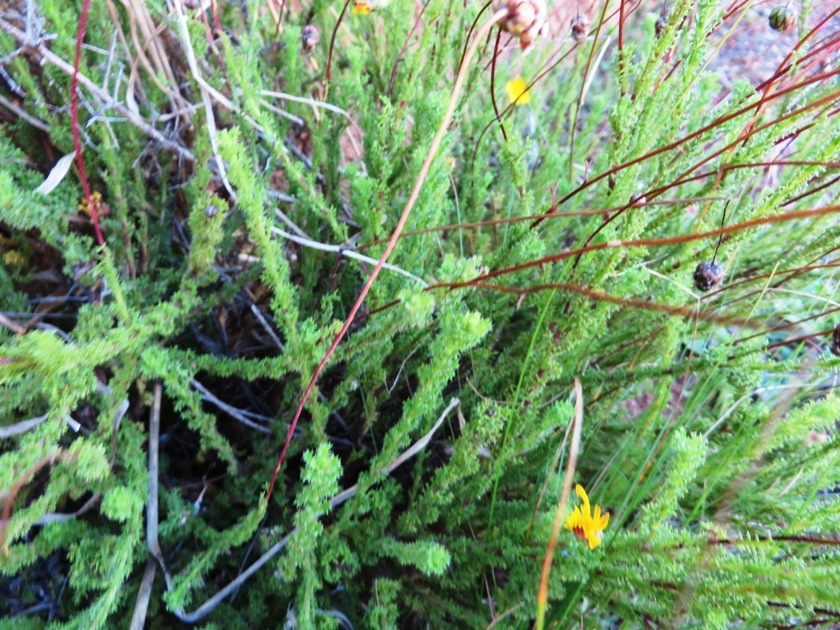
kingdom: Plantae
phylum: Tracheophyta
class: Magnoliopsida
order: Asterales
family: Asteraceae
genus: Ursinia
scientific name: Ursinia dentata
